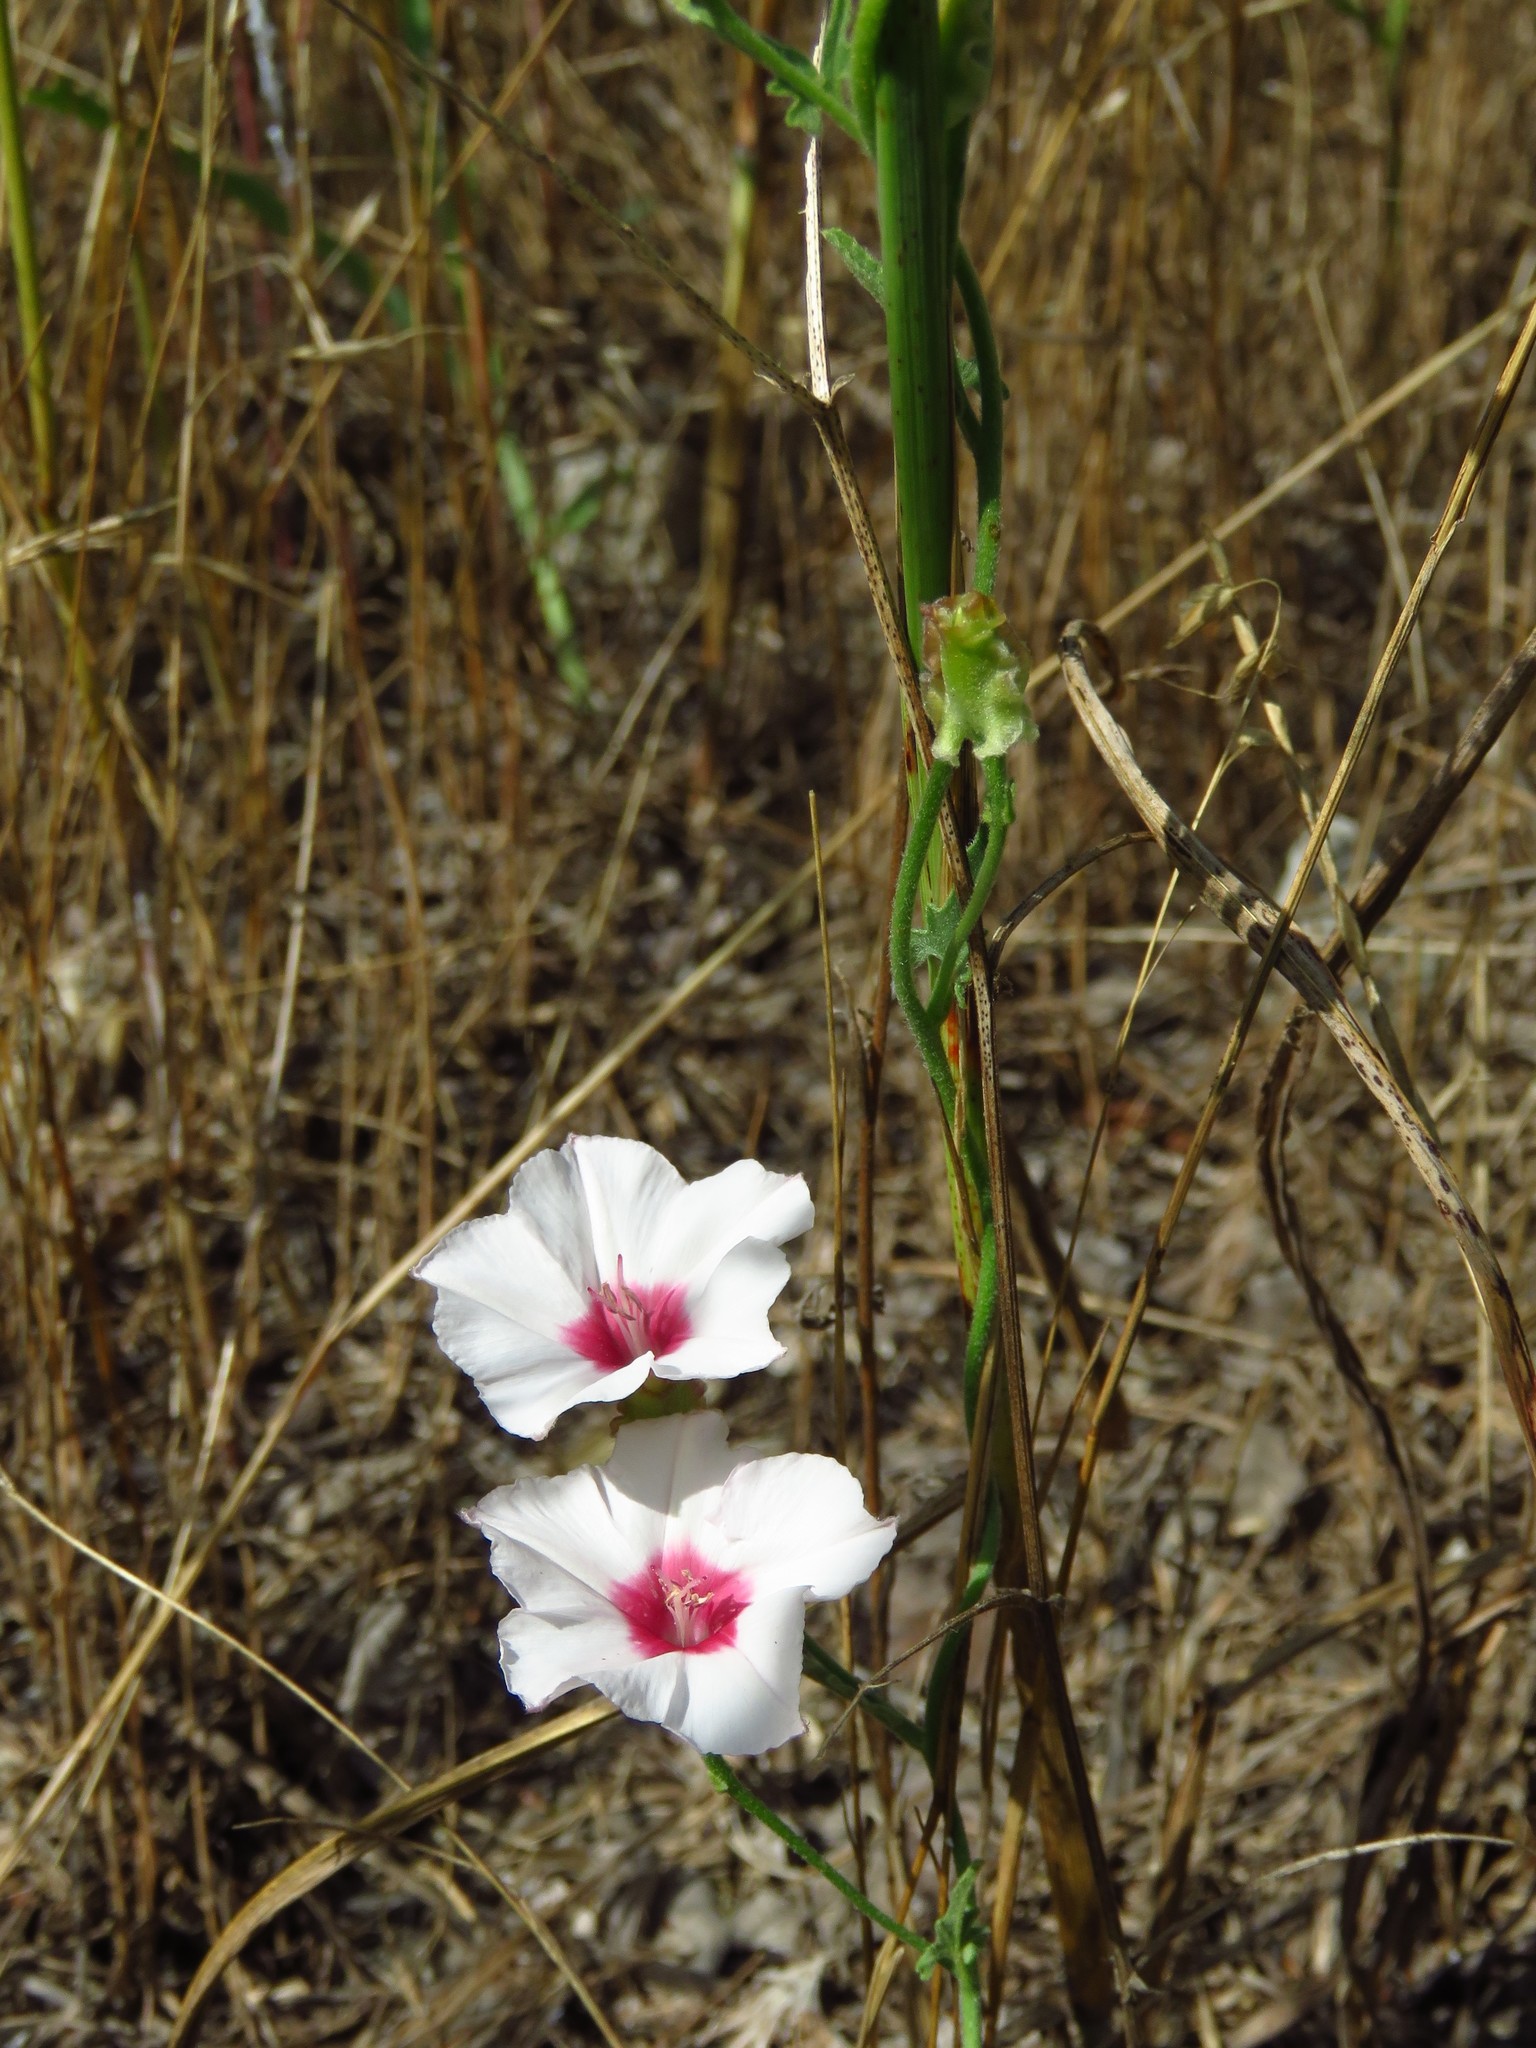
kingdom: Plantae
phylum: Tracheophyta
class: Magnoliopsida
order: Solanales
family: Convolvulaceae
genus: Convolvulus
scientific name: Convolvulus equitans
